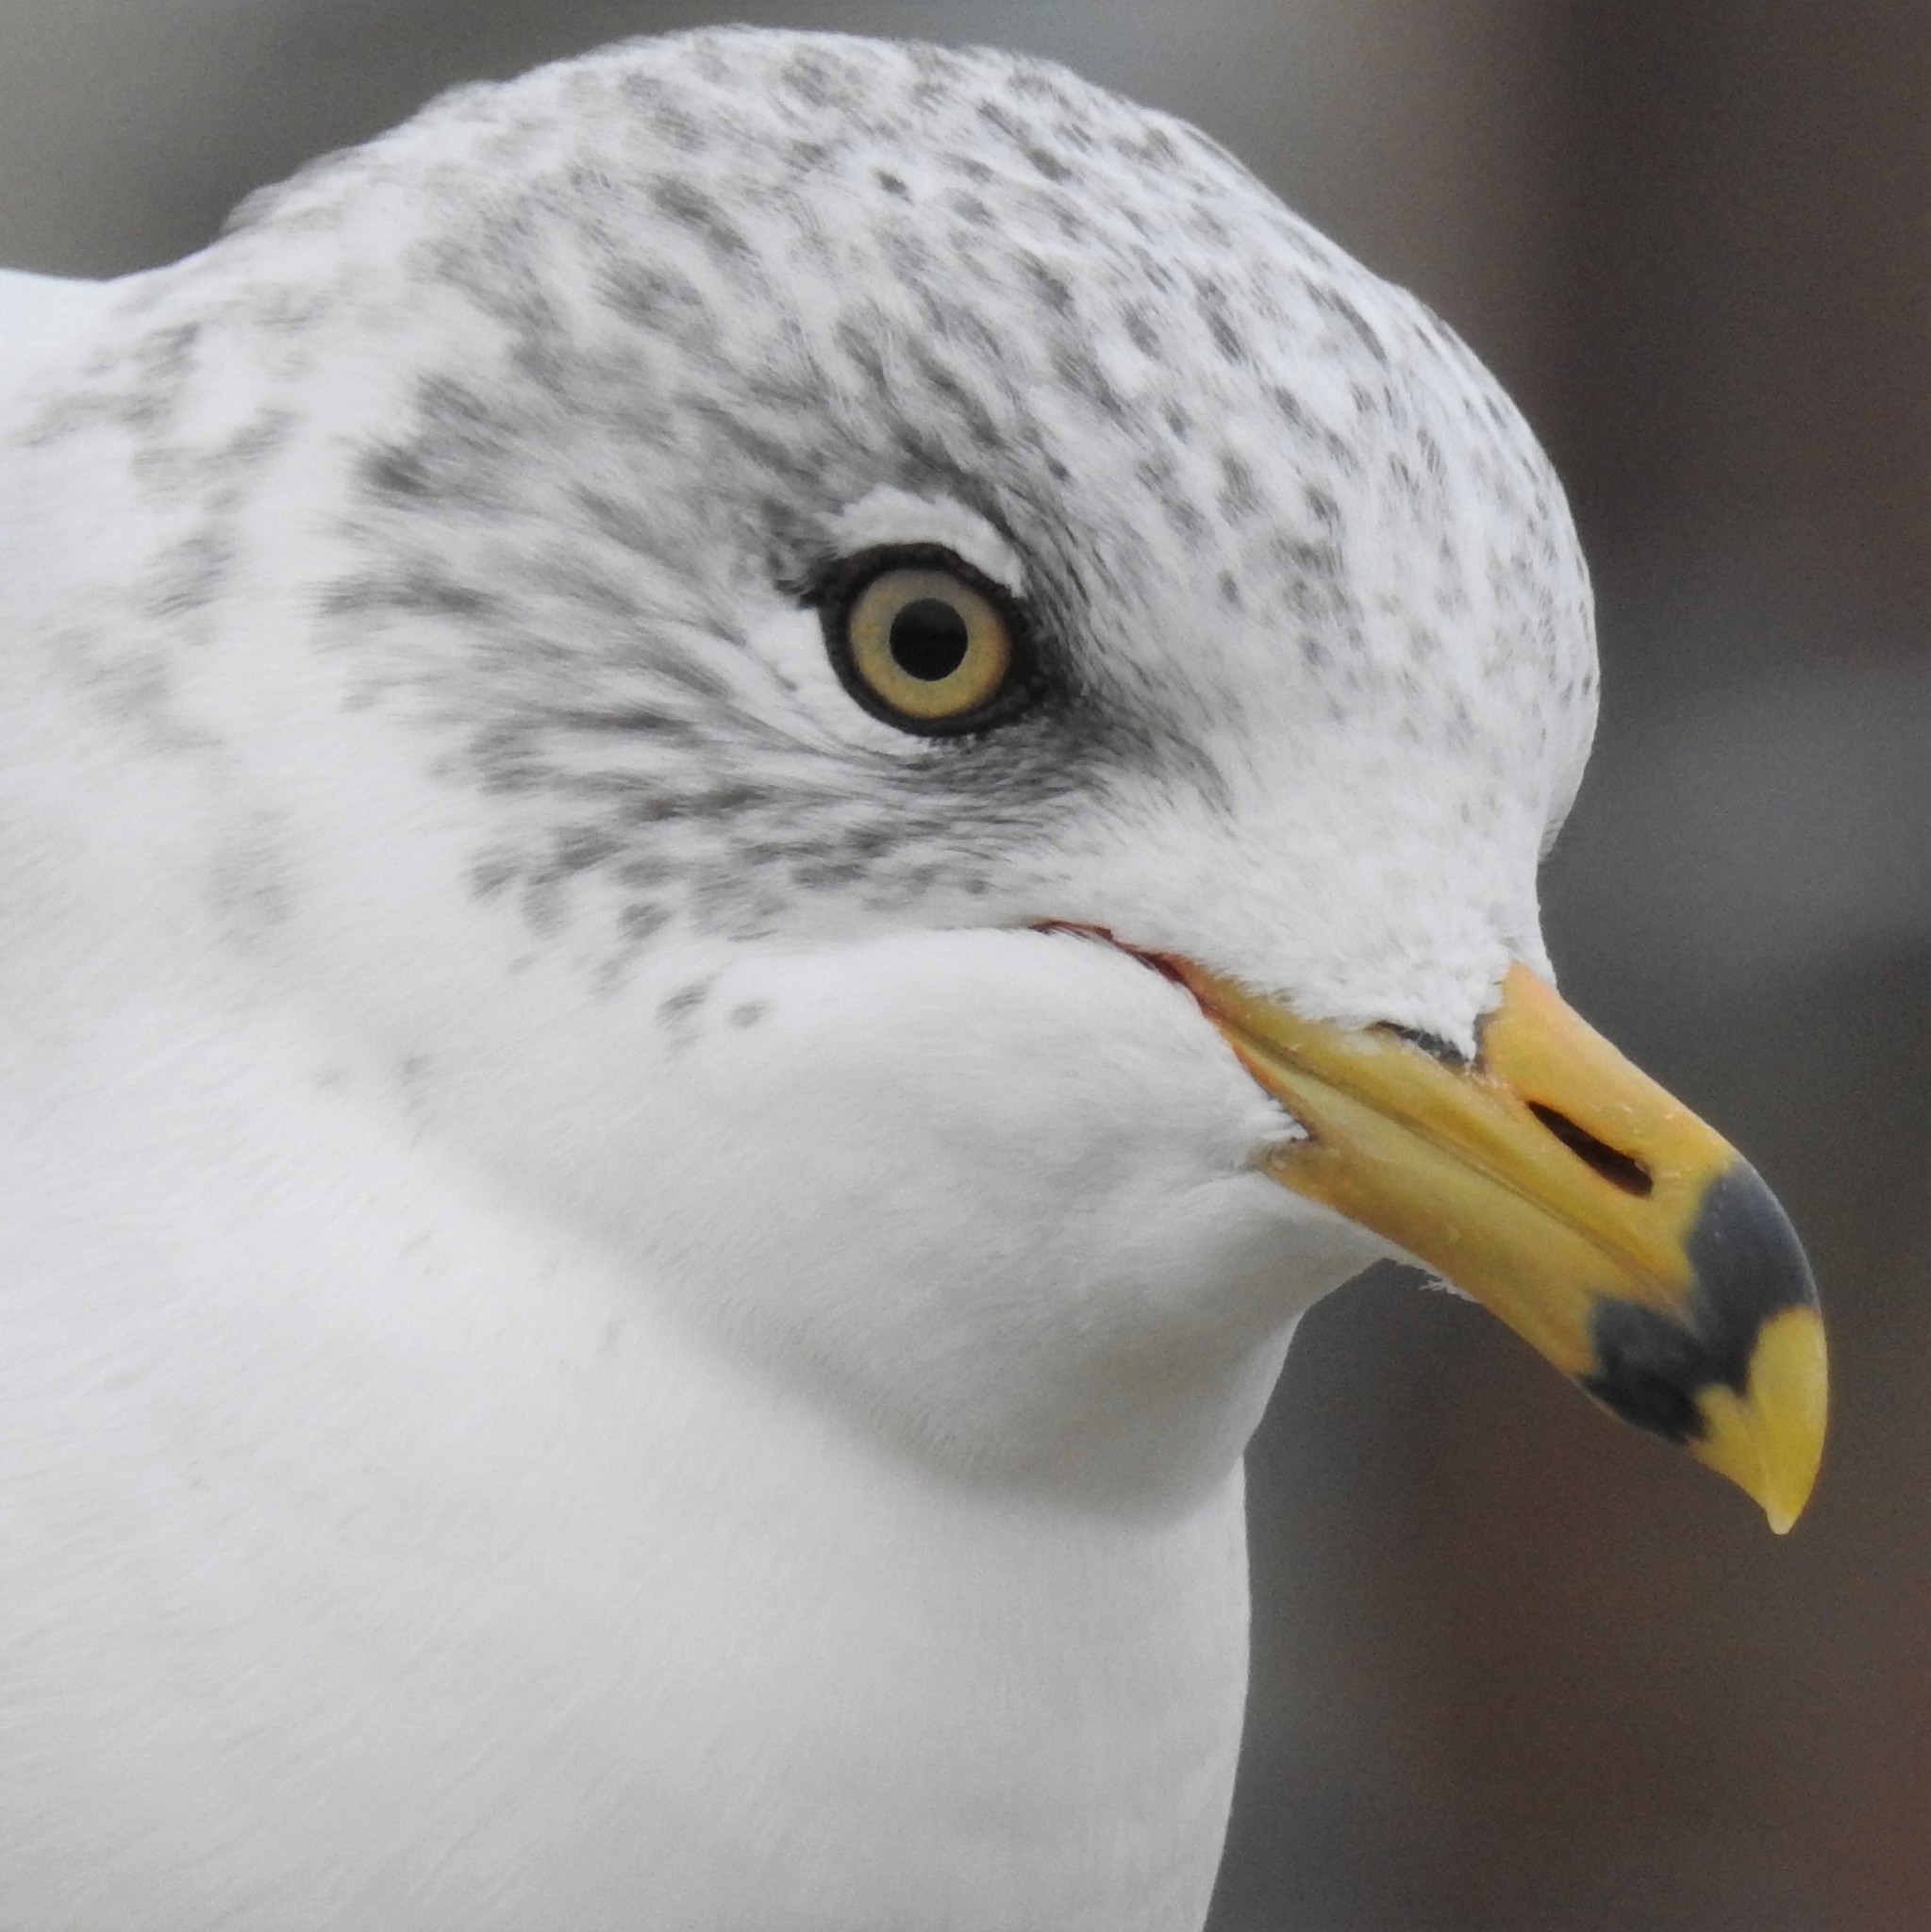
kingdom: Animalia
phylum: Chordata
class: Aves
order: Charadriiformes
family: Laridae
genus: Larus
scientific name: Larus delawarensis
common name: Ring-billed gull
